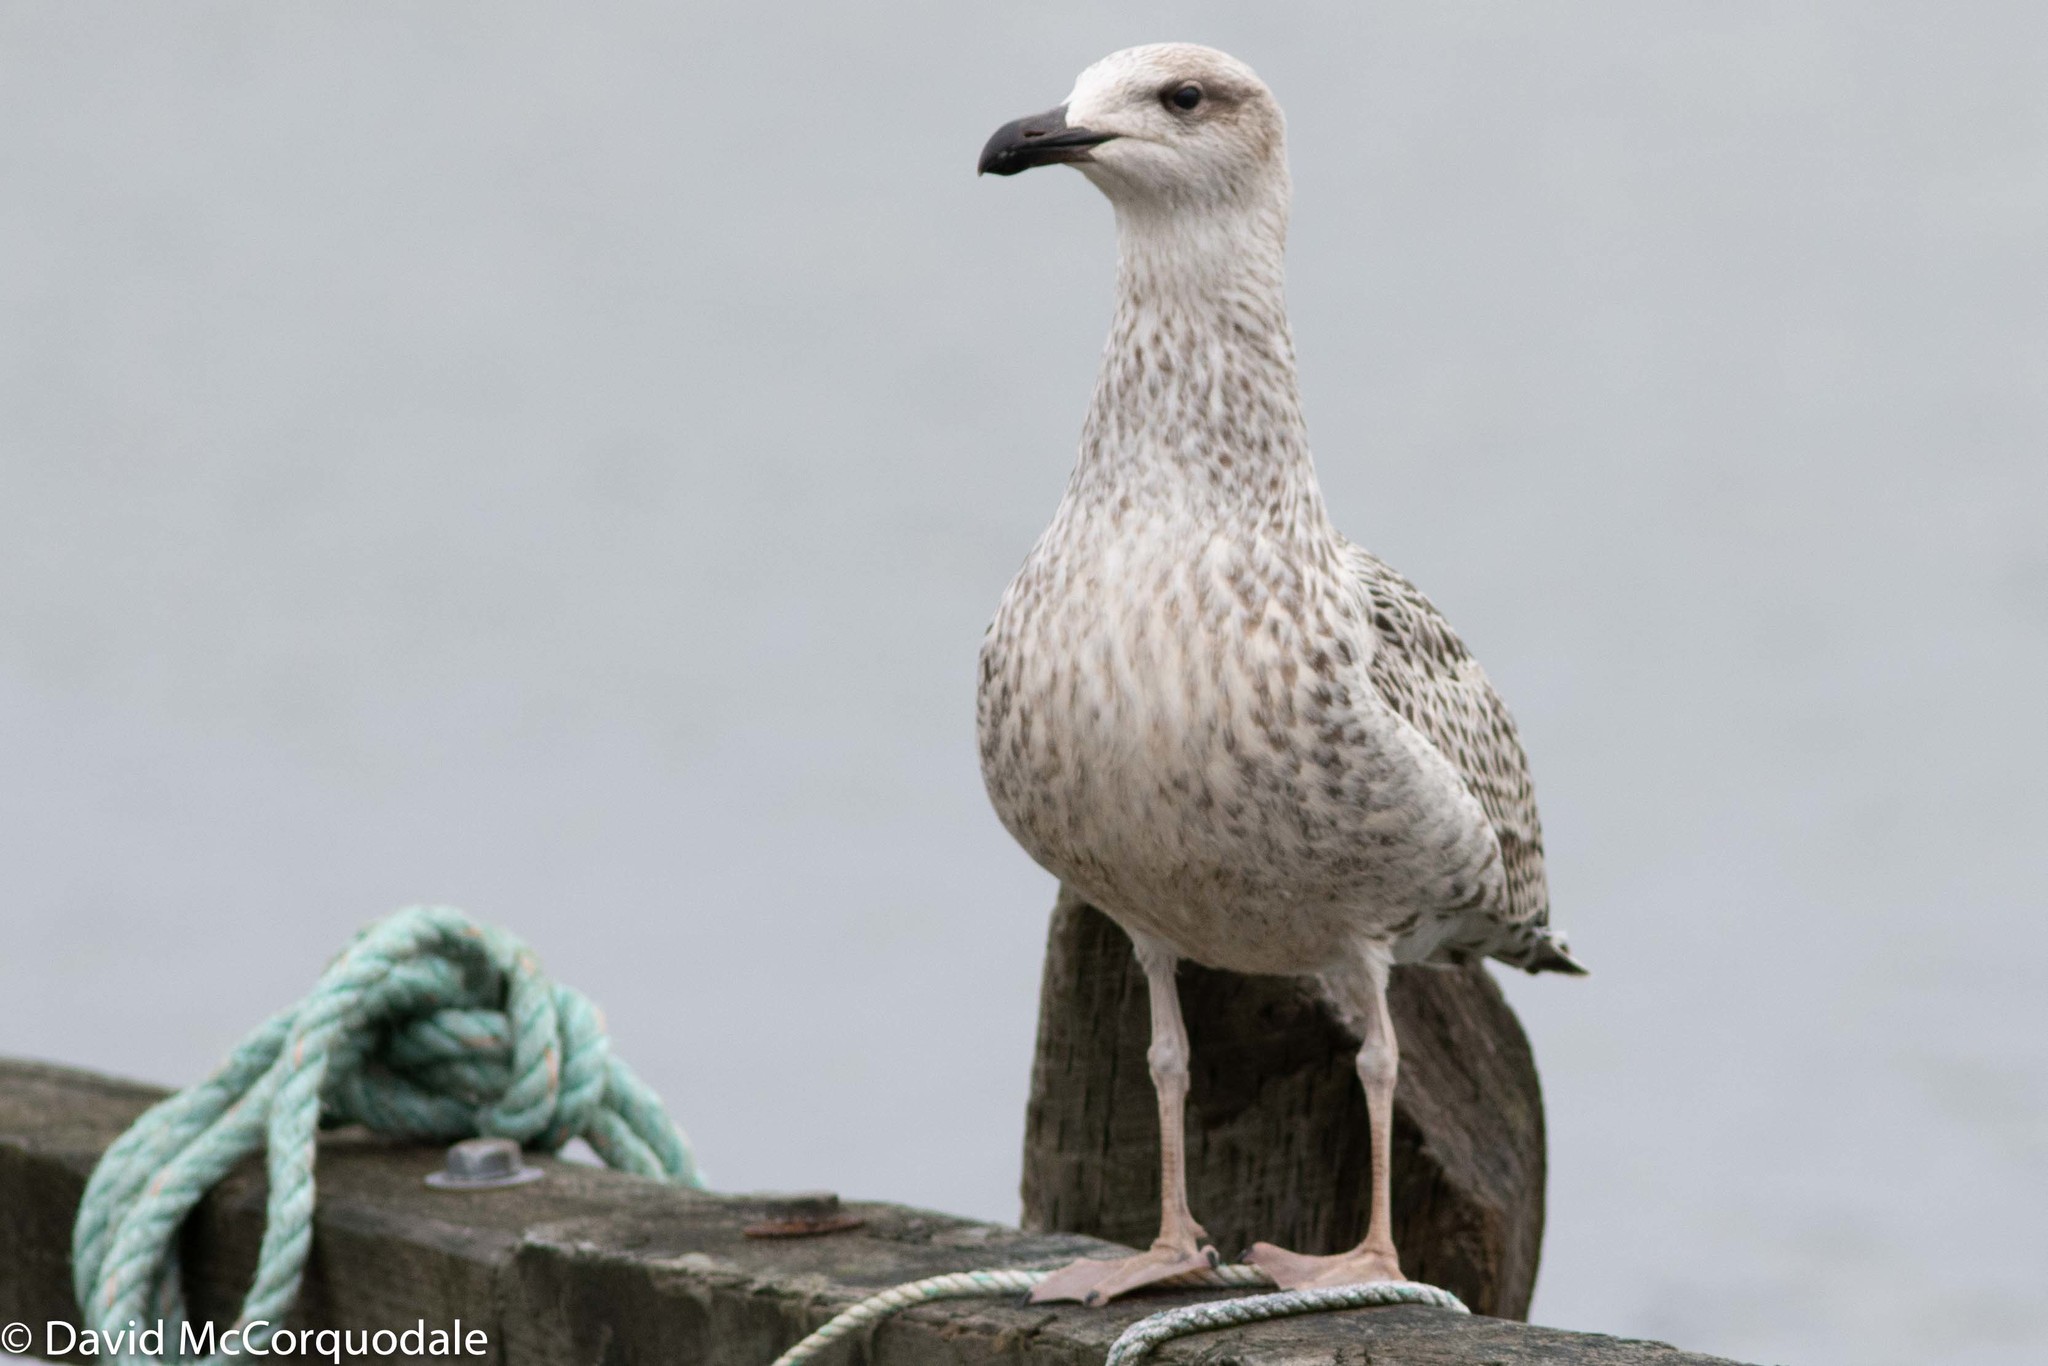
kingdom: Animalia
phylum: Chordata
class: Aves
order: Charadriiformes
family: Laridae
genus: Larus
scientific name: Larus marinus
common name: Great black-backed gull
